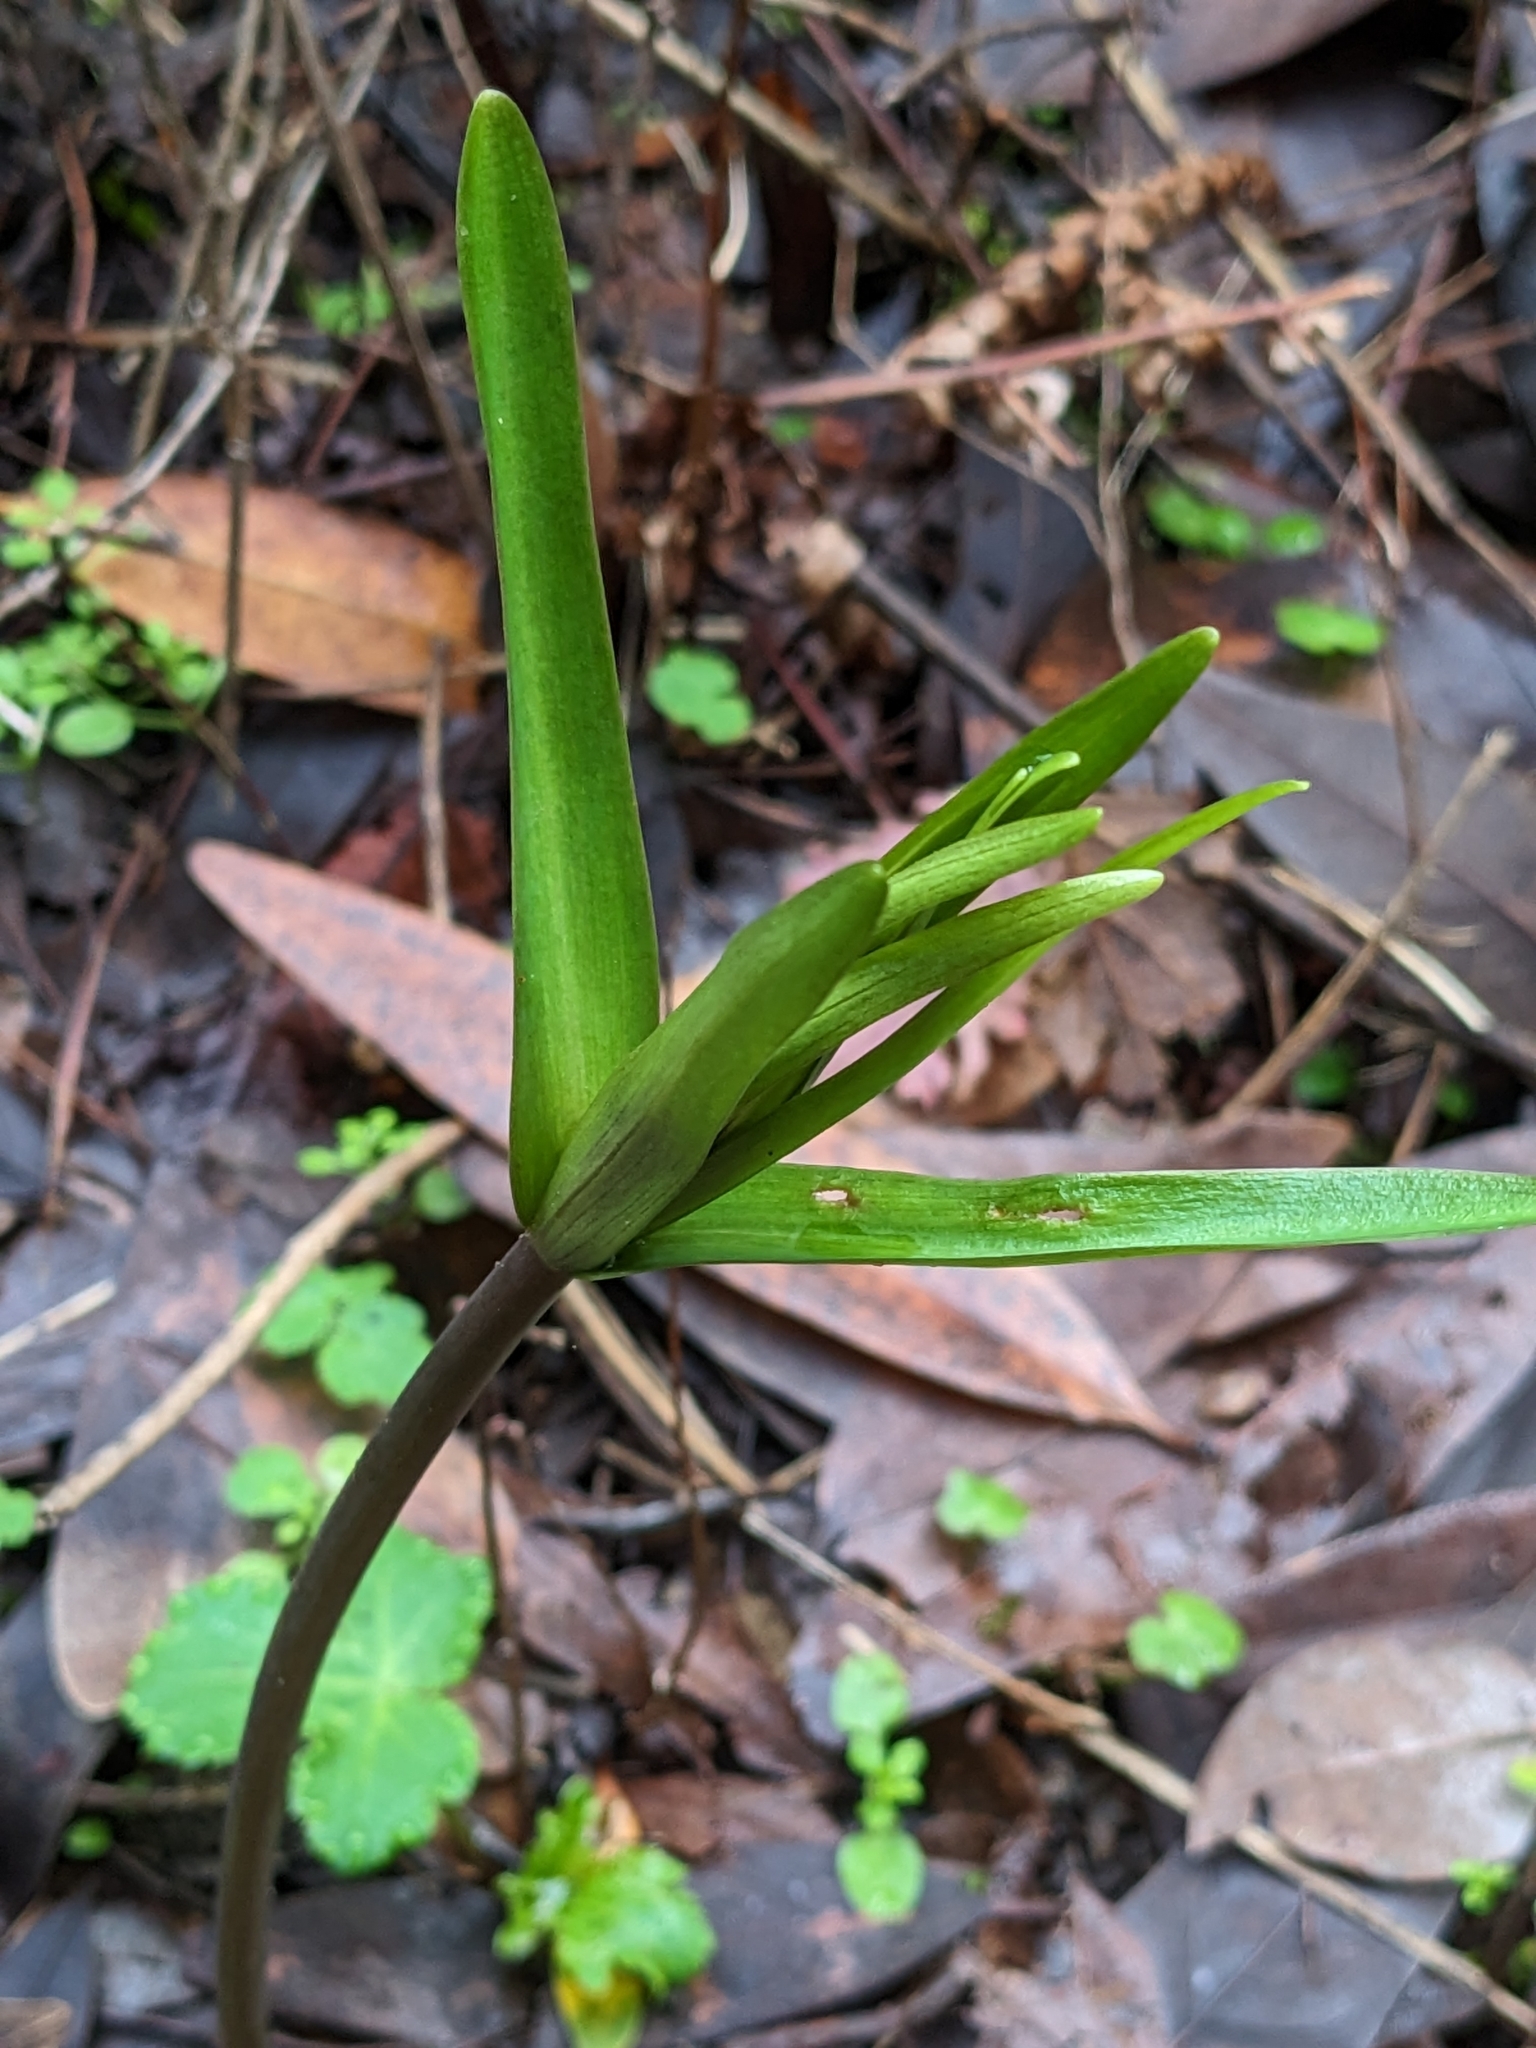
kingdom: Plantae
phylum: Tracheophyta
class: Liliopsida
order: Liliales
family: Liliaceae
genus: Fritillaria
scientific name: Fritillaria affinis
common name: Ojai fritillary
